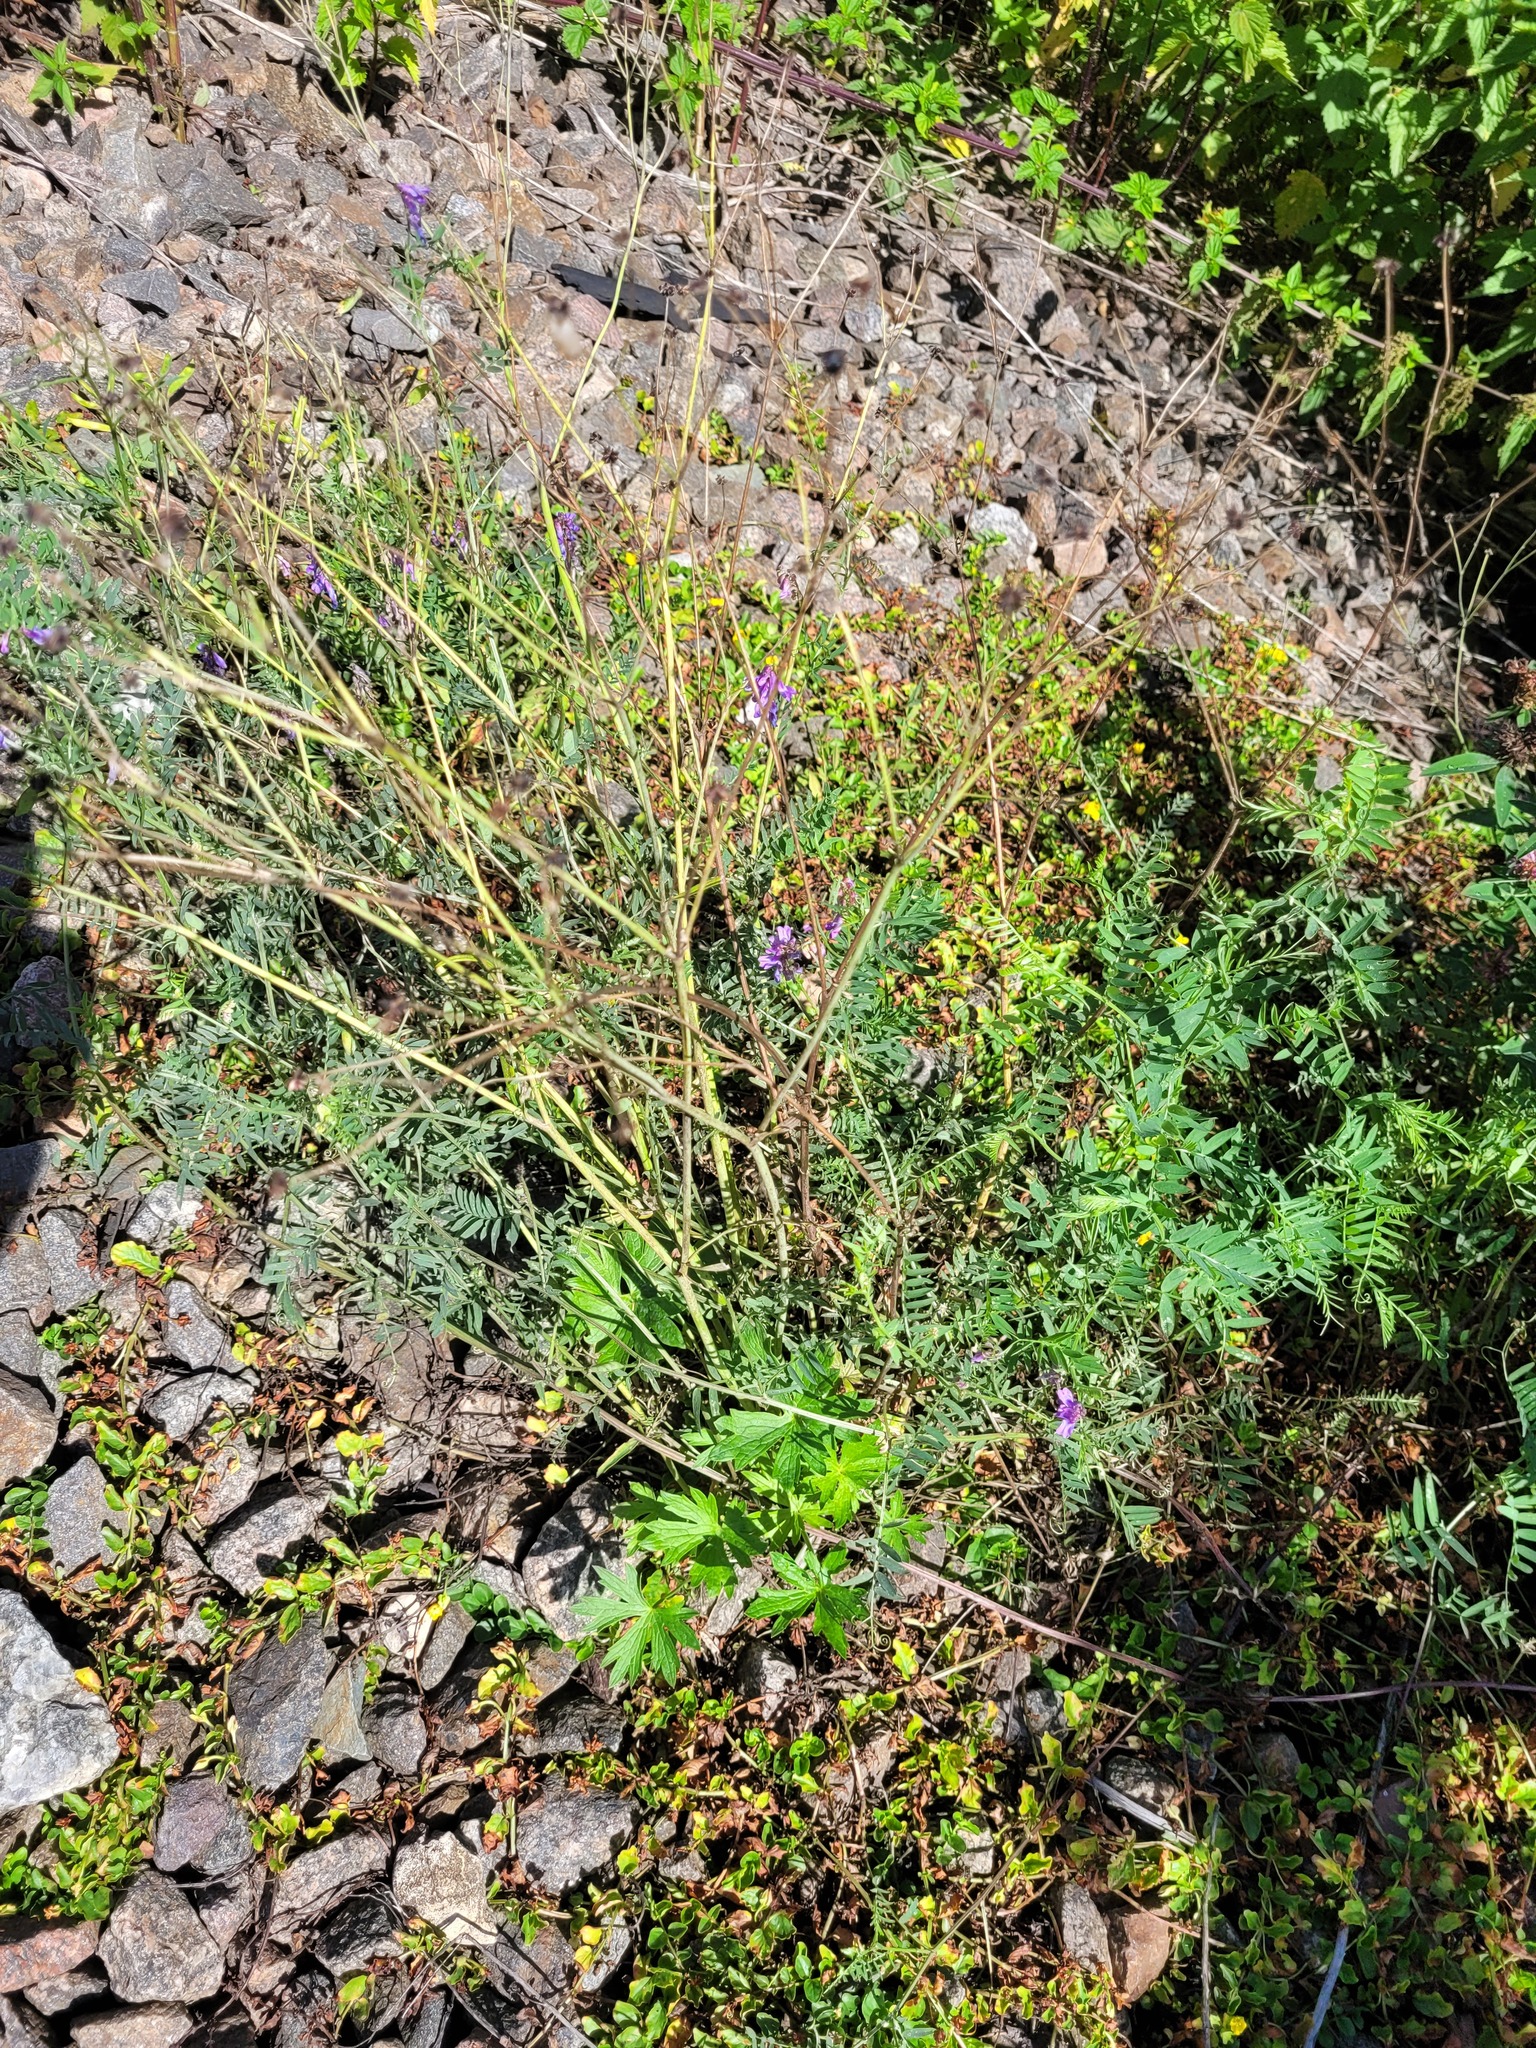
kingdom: Plantae
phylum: Tracheophyta
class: Magnoliopsida
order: Ranunculales
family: Ranunculaceae
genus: Ranunculus
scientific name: Ranunculus acris
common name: Meadow buttercup
